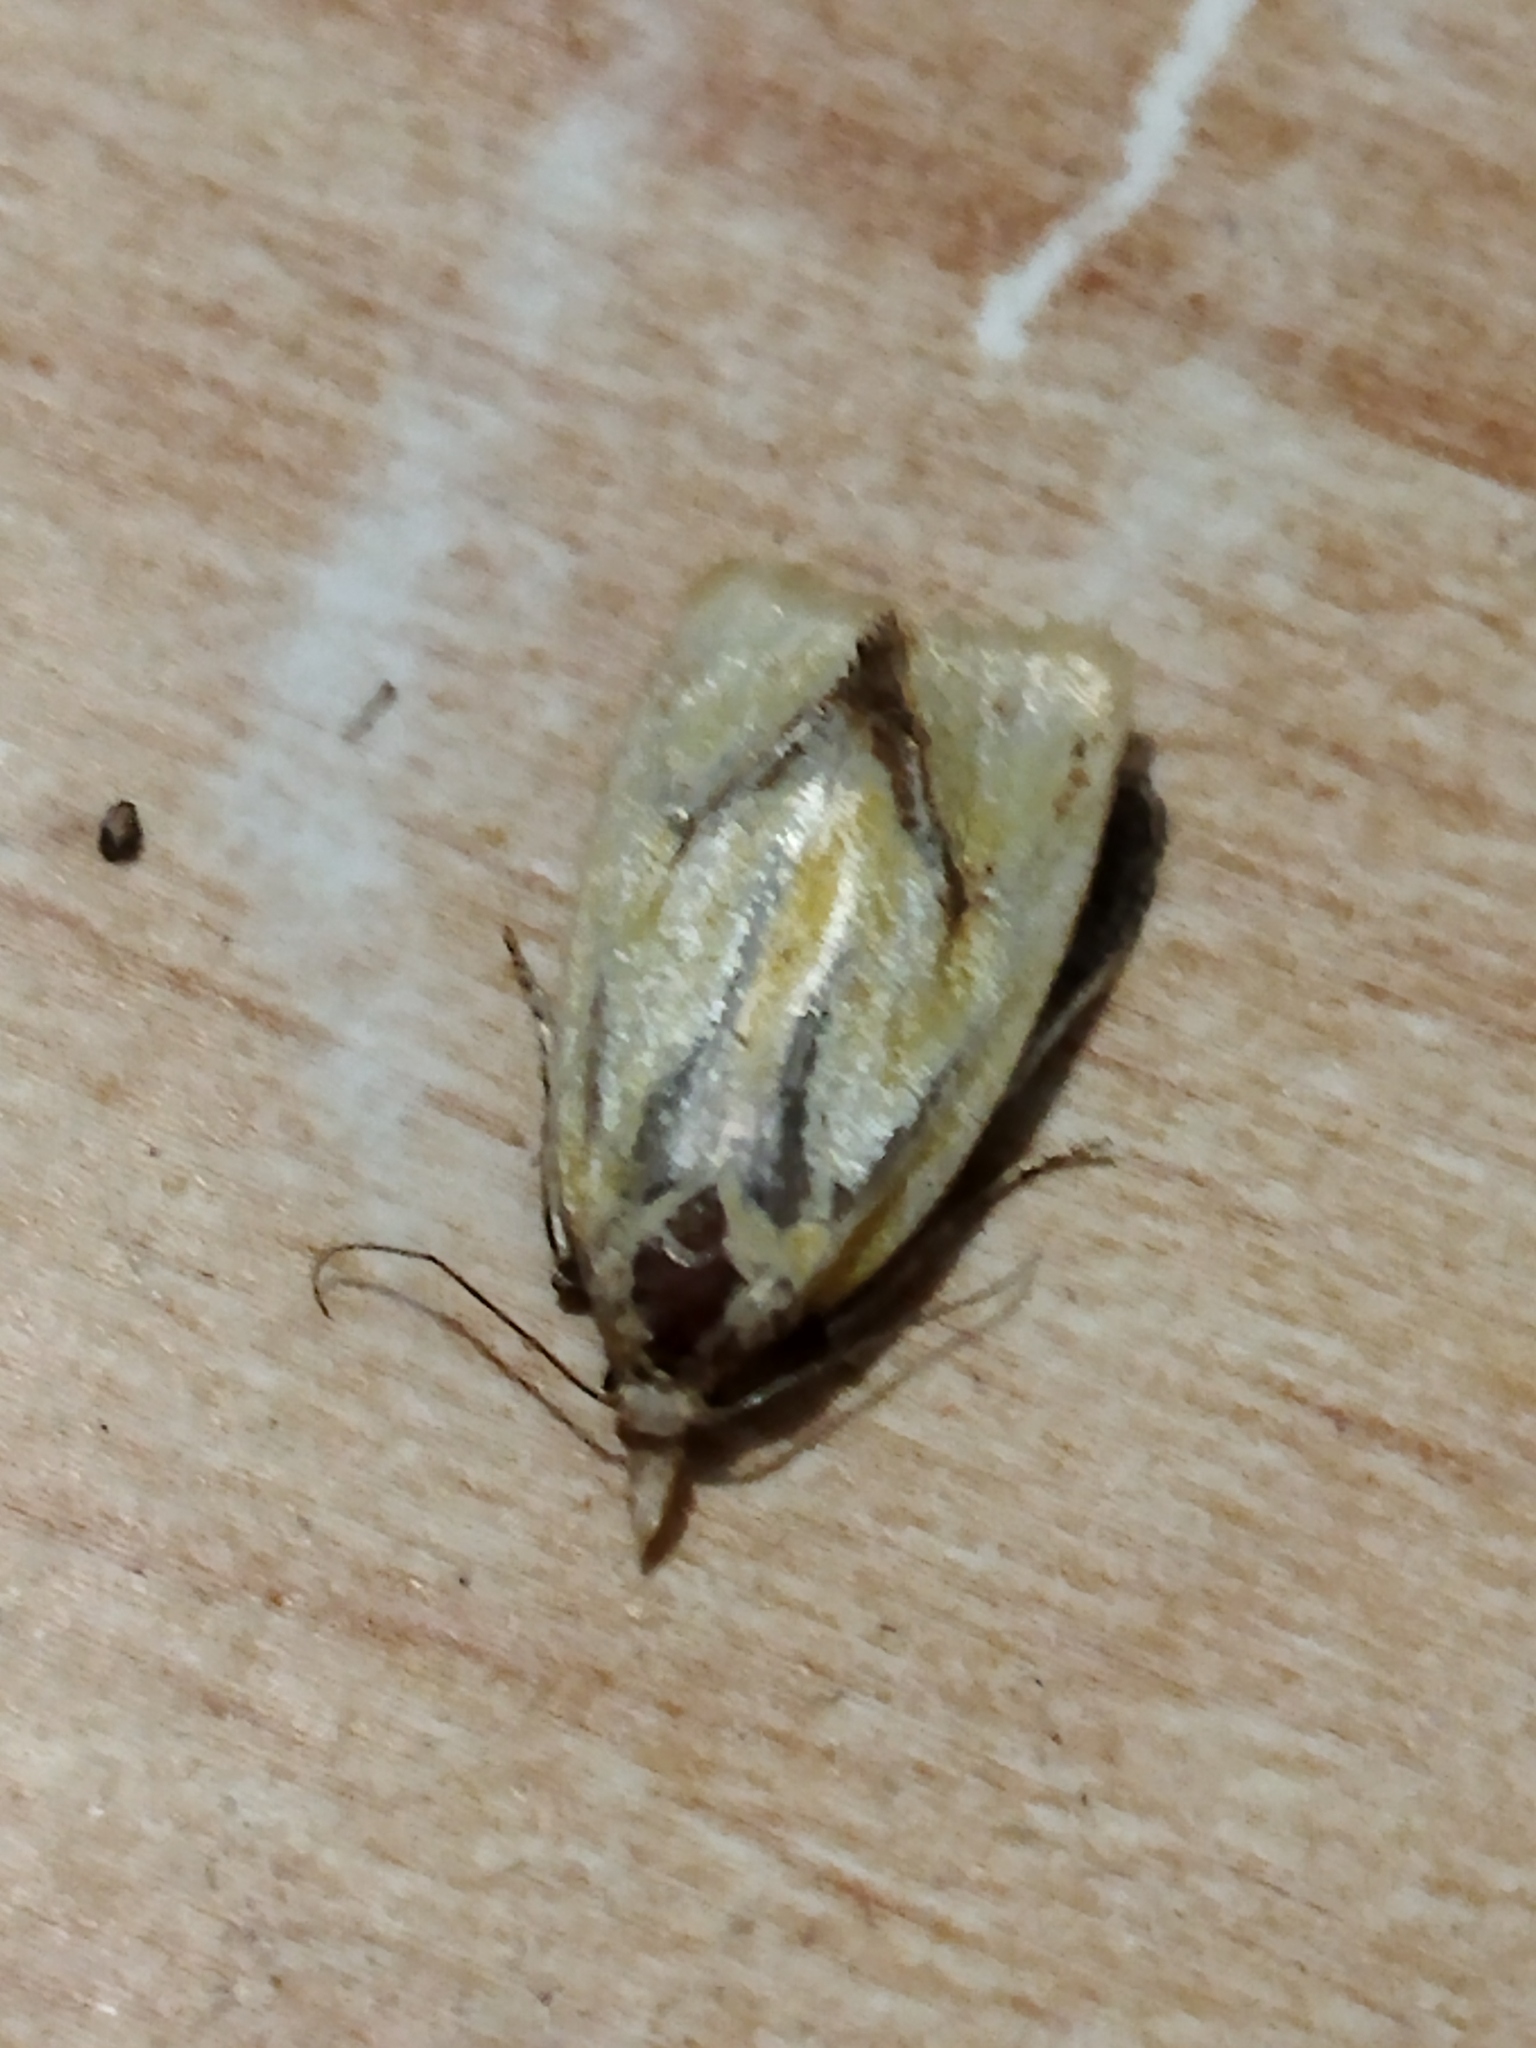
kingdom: Animalia
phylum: Arthropoda
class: Insecta
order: Lepidoptera
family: Tortricidae
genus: Agapeta
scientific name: Agapeta hamana
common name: Common yellow conch
